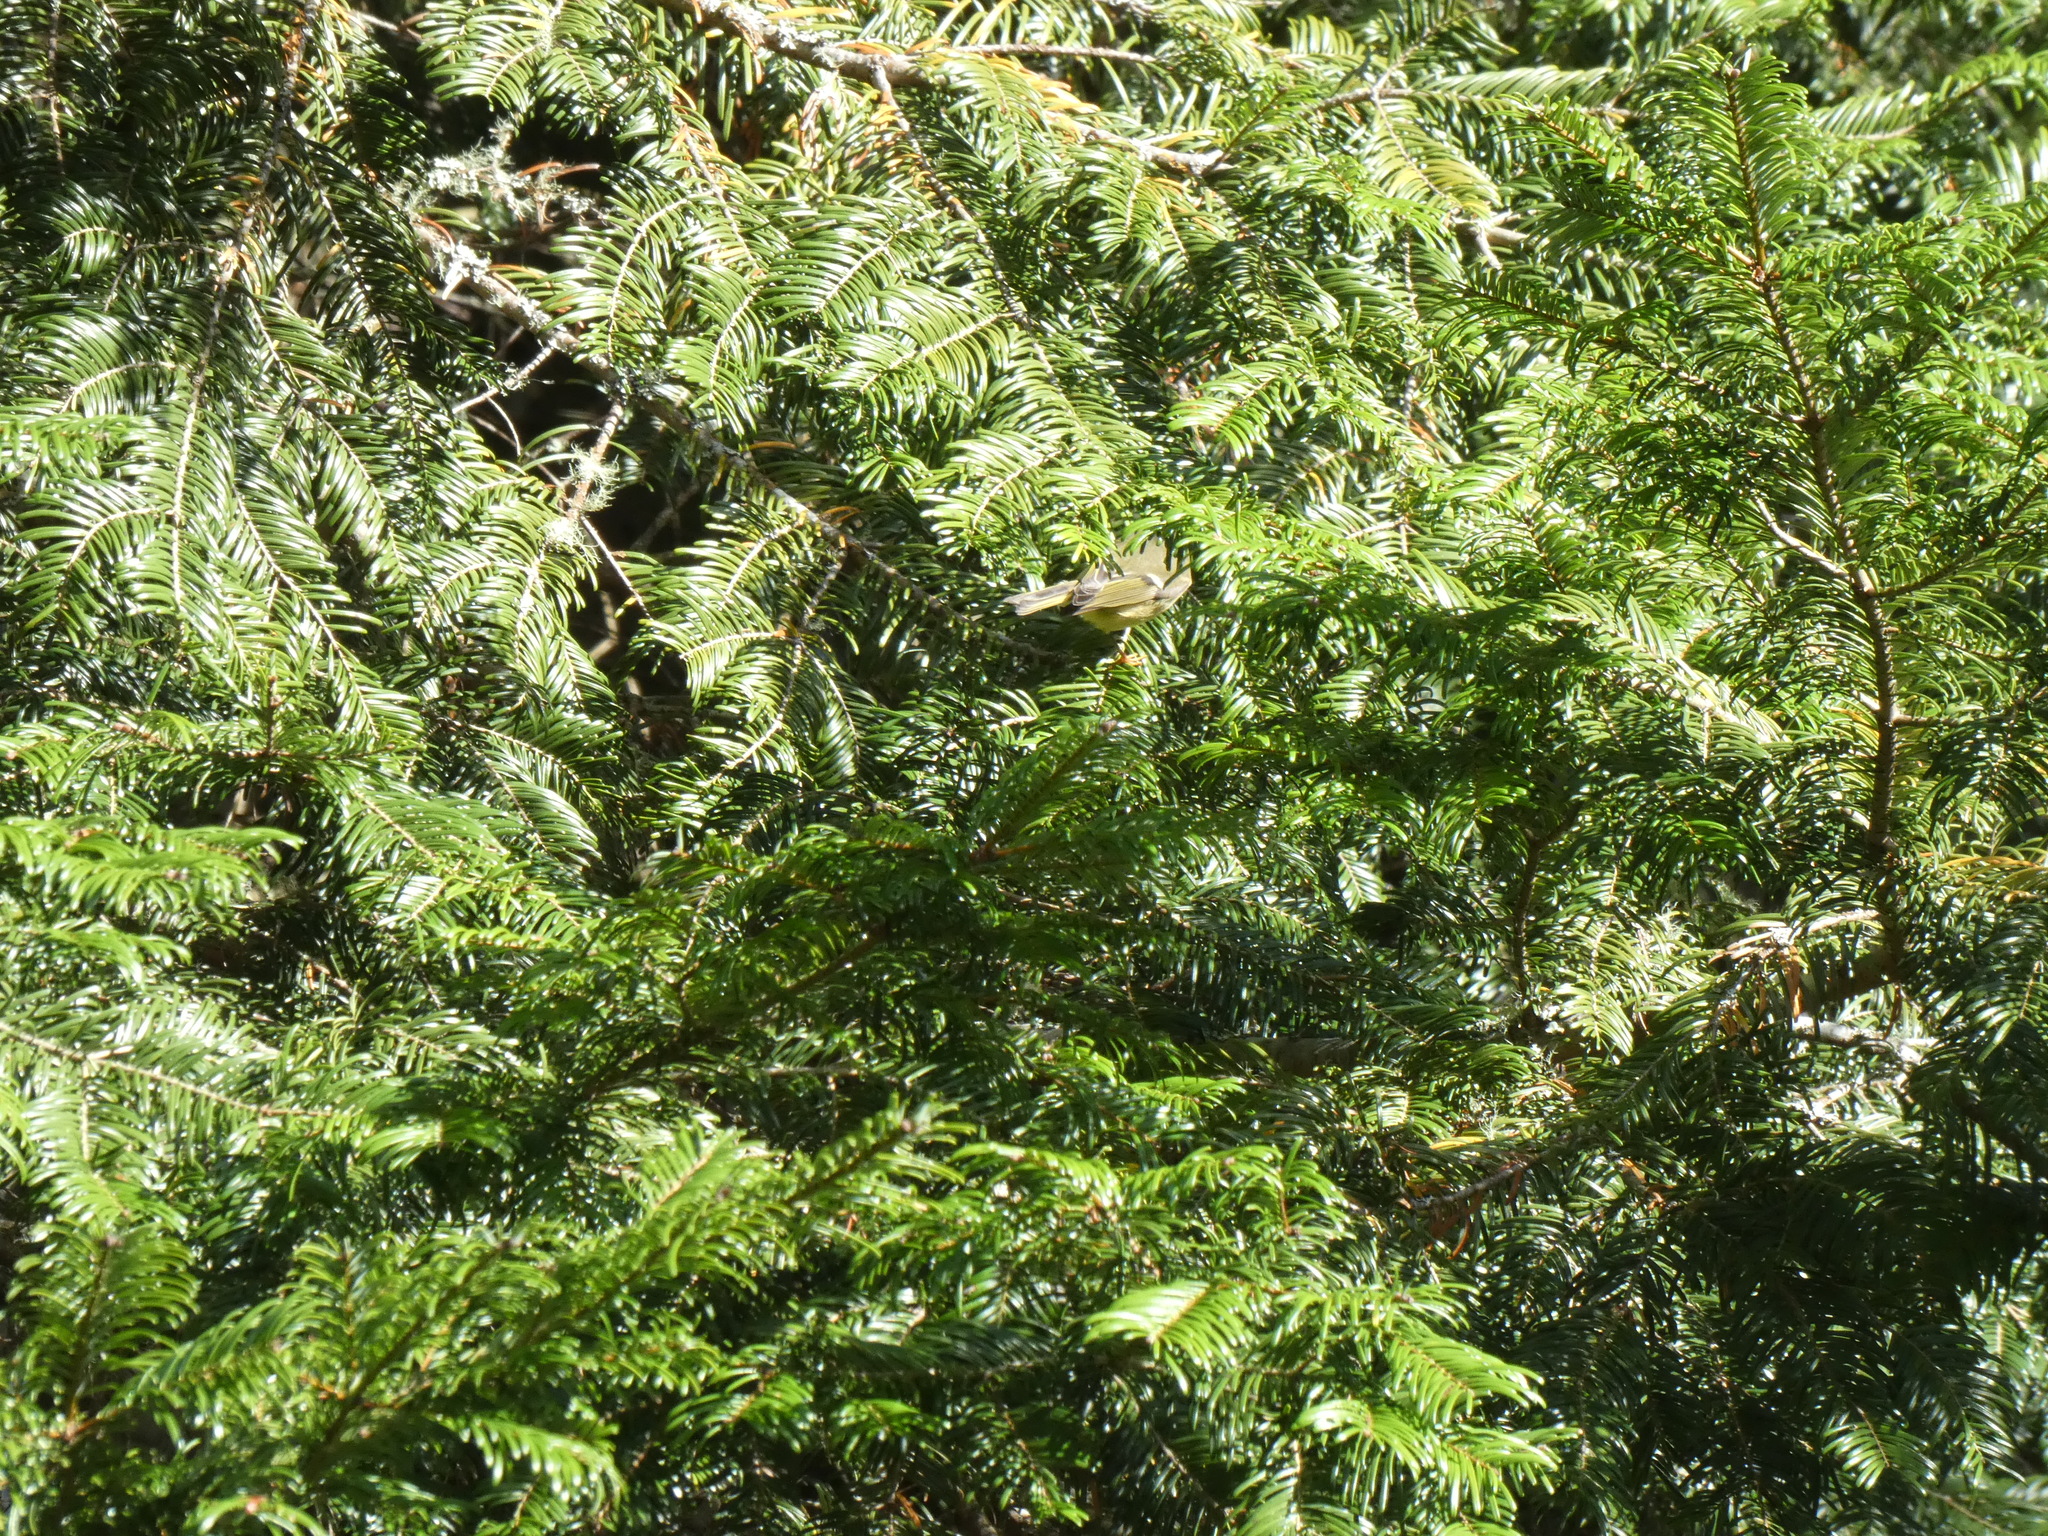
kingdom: Animalia
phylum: Chordata
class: Aves
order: Passeriformes
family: Regulidae
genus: Regulus
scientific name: Regulus calendula
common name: Ruby-crowned kinglet
